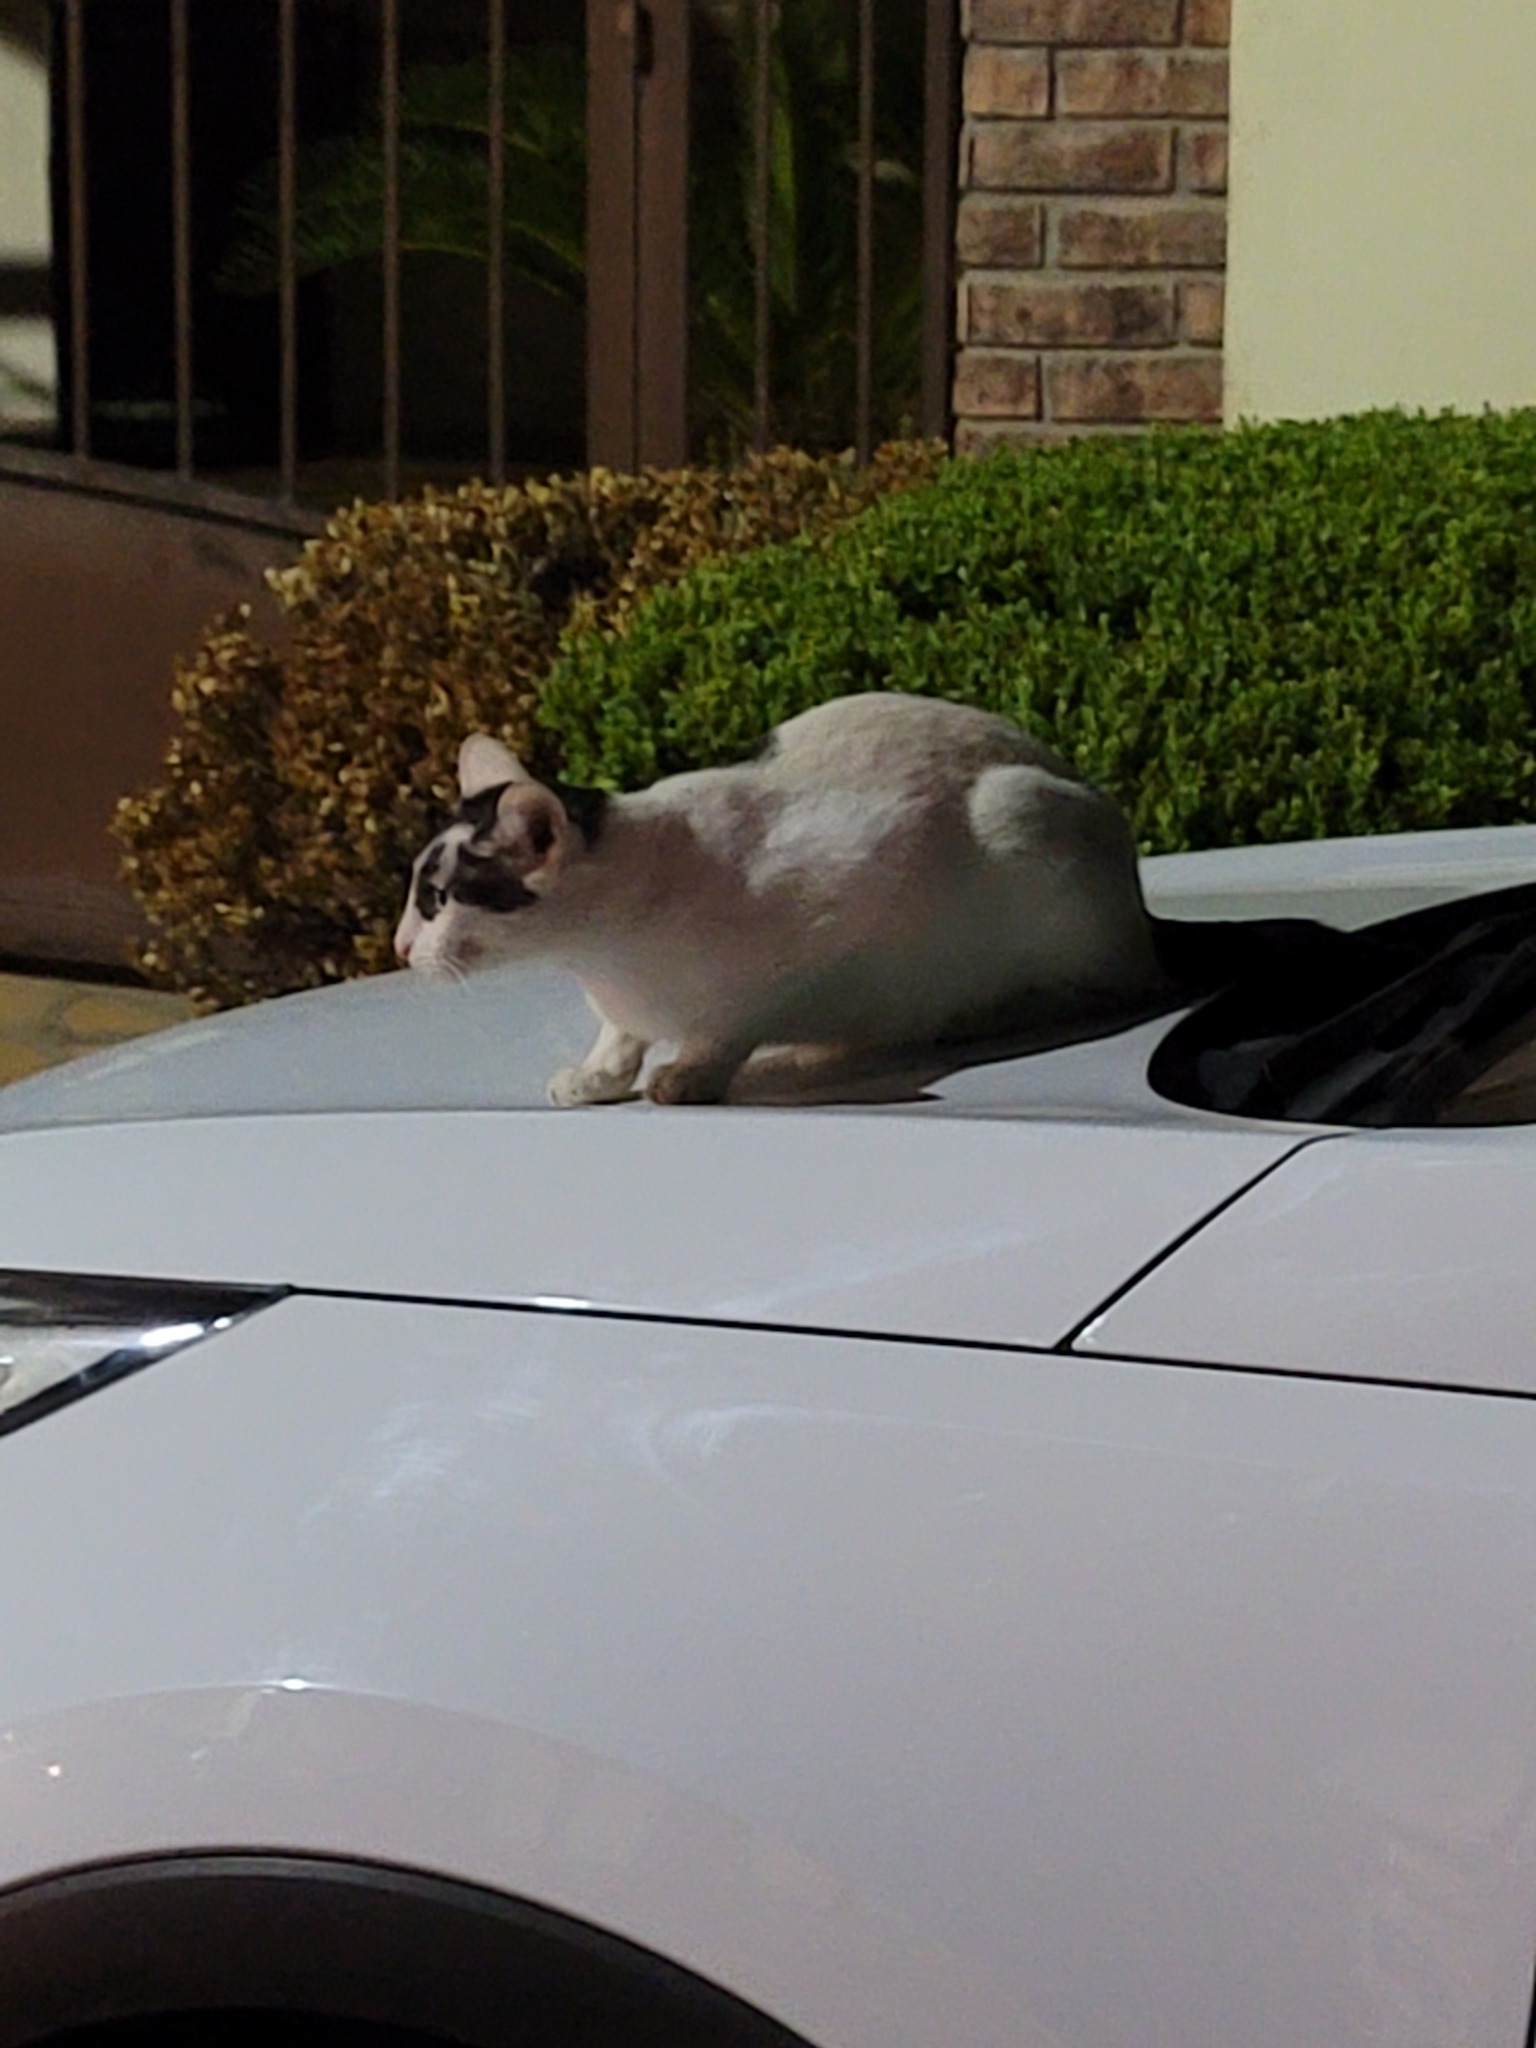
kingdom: Animalia
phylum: Chordata
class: Mammalia
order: Carnivora
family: Felidae
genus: Felis
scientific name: Felis catus
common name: Domestic cat
